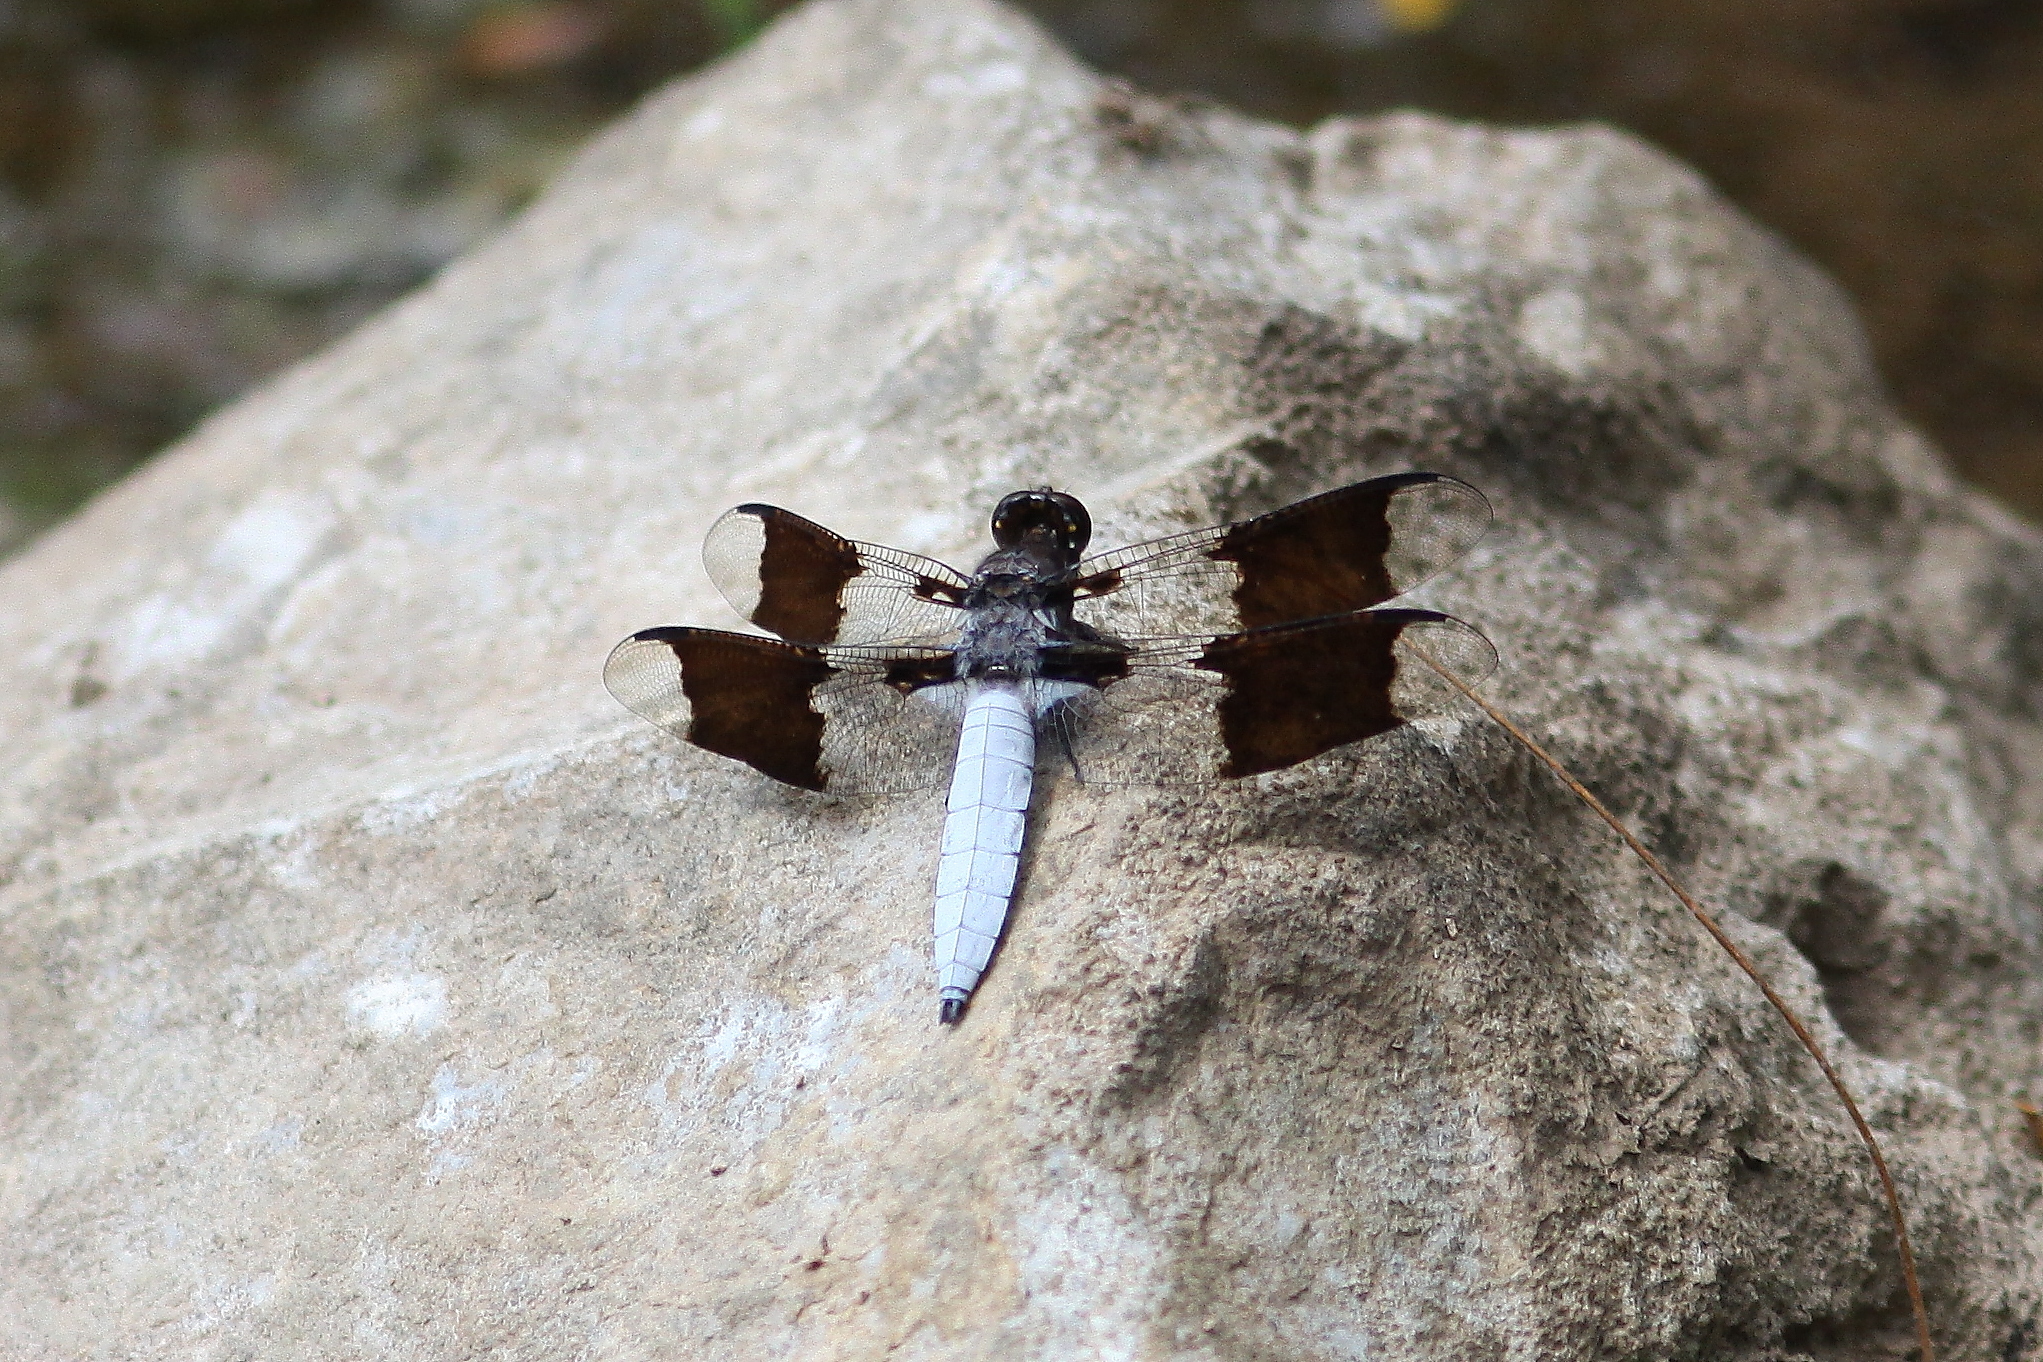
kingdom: Animalia
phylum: Arthropoda
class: Insecta
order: Odonata
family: Libellulidae
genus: Plathemis
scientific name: Plathemis lydia
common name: Common whitetail
